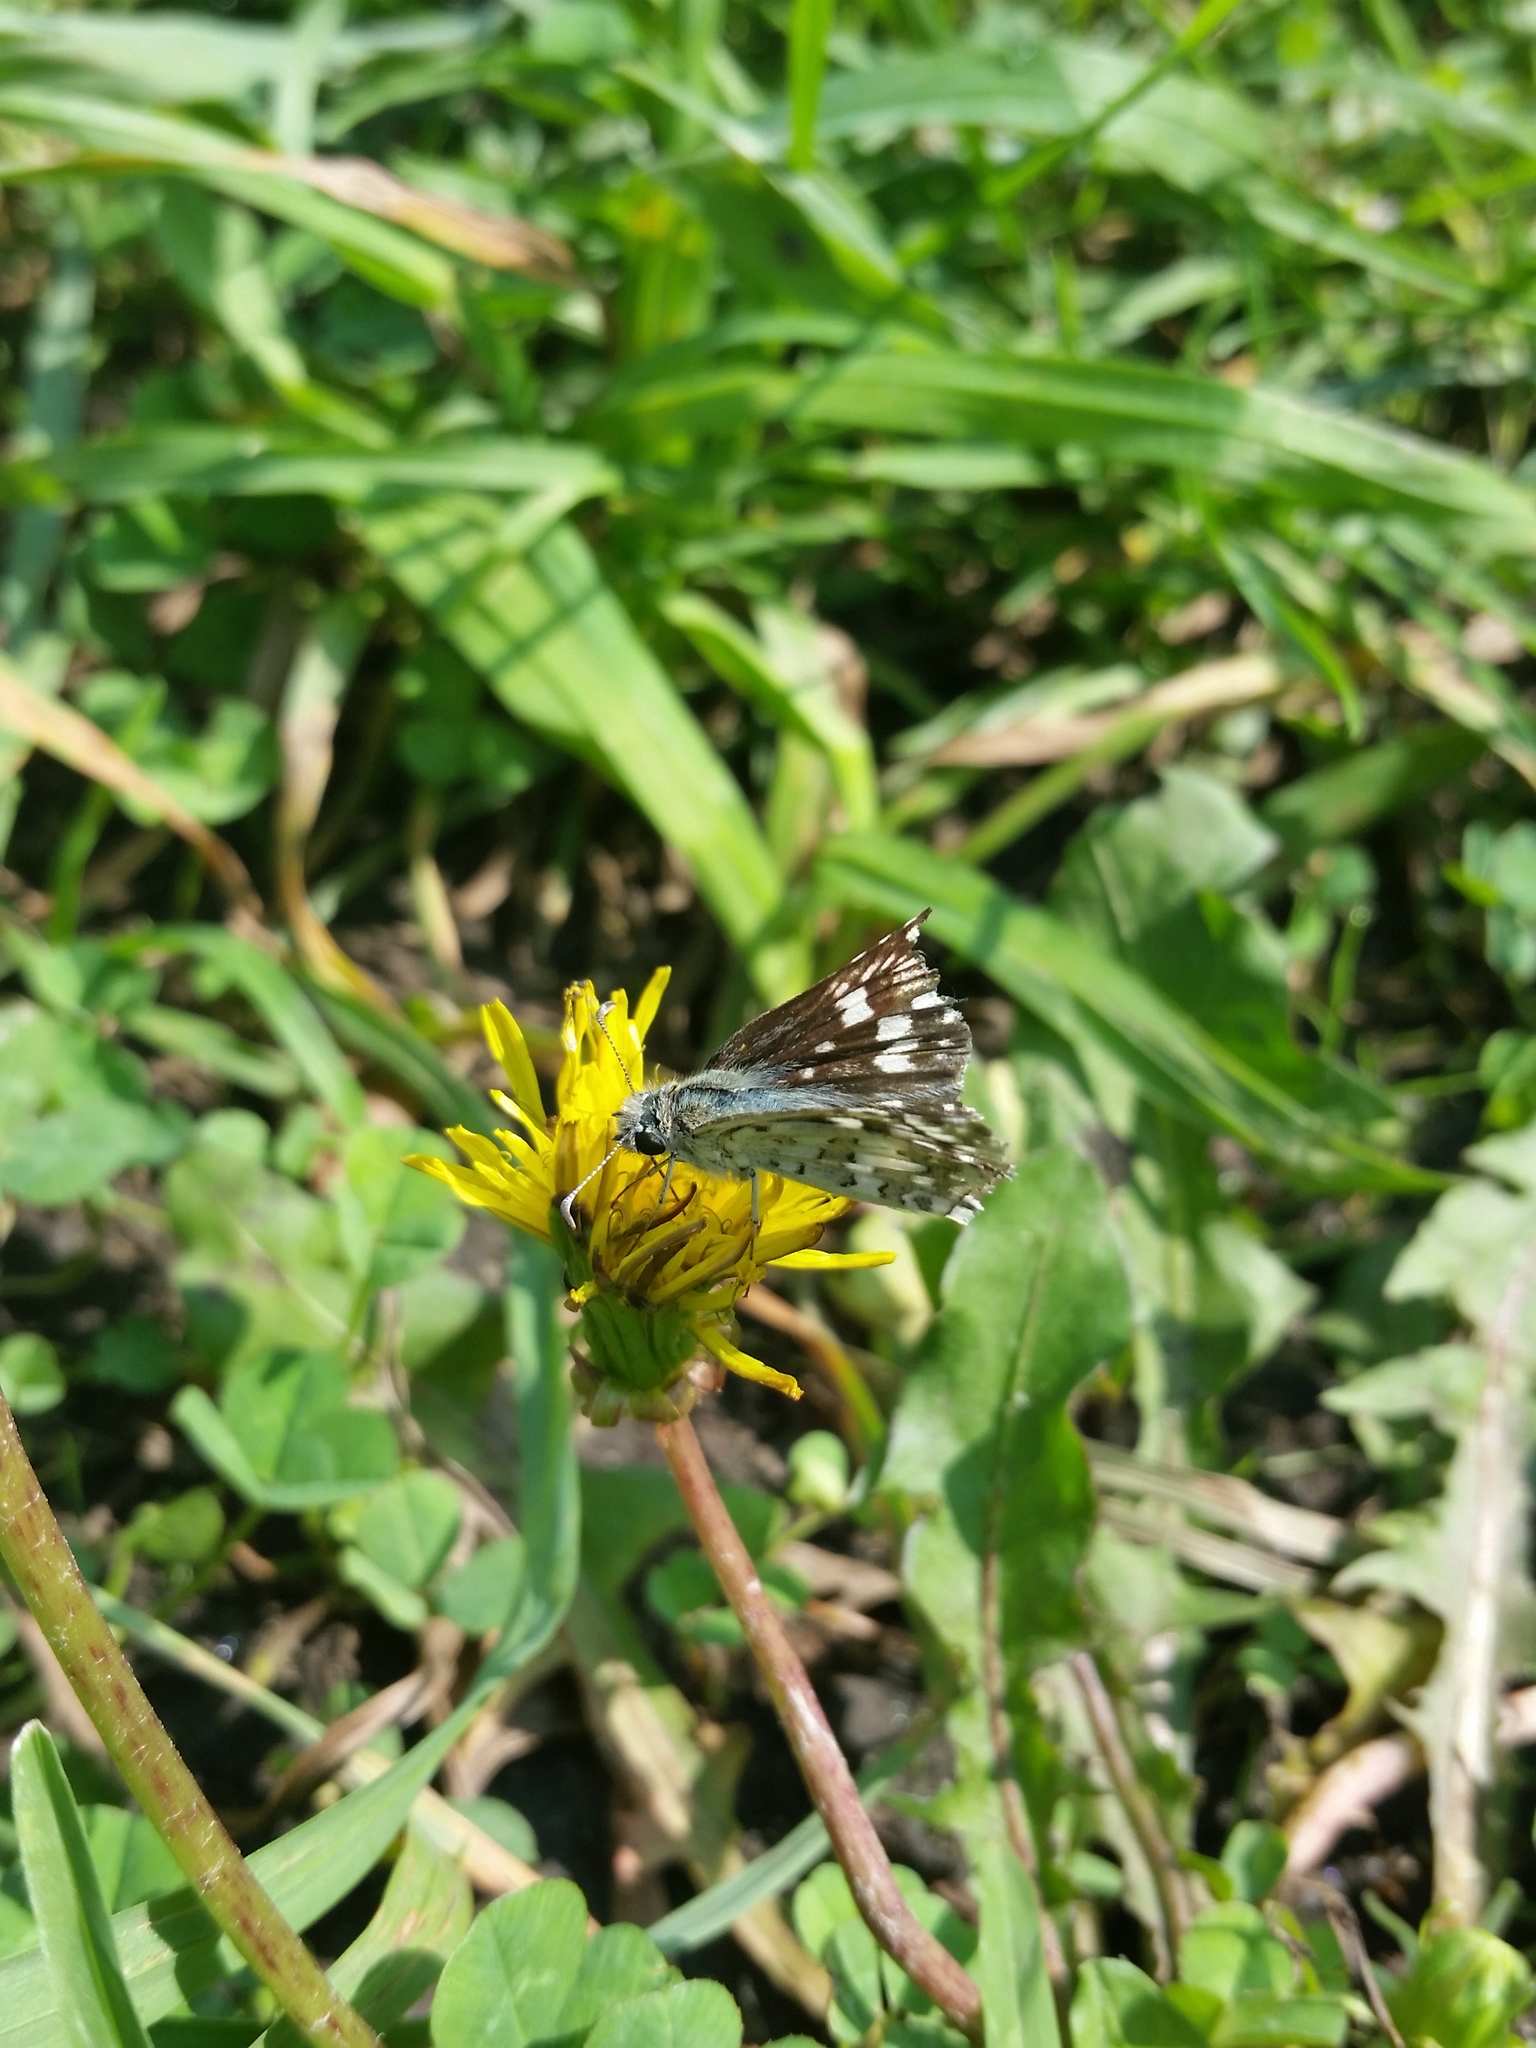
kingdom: Animalia
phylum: Arthropoda
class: Insecta
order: Lepidoptera
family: Hesperiidae
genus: Burnsius
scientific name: Burnsius communis
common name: Common checkered-skipper
